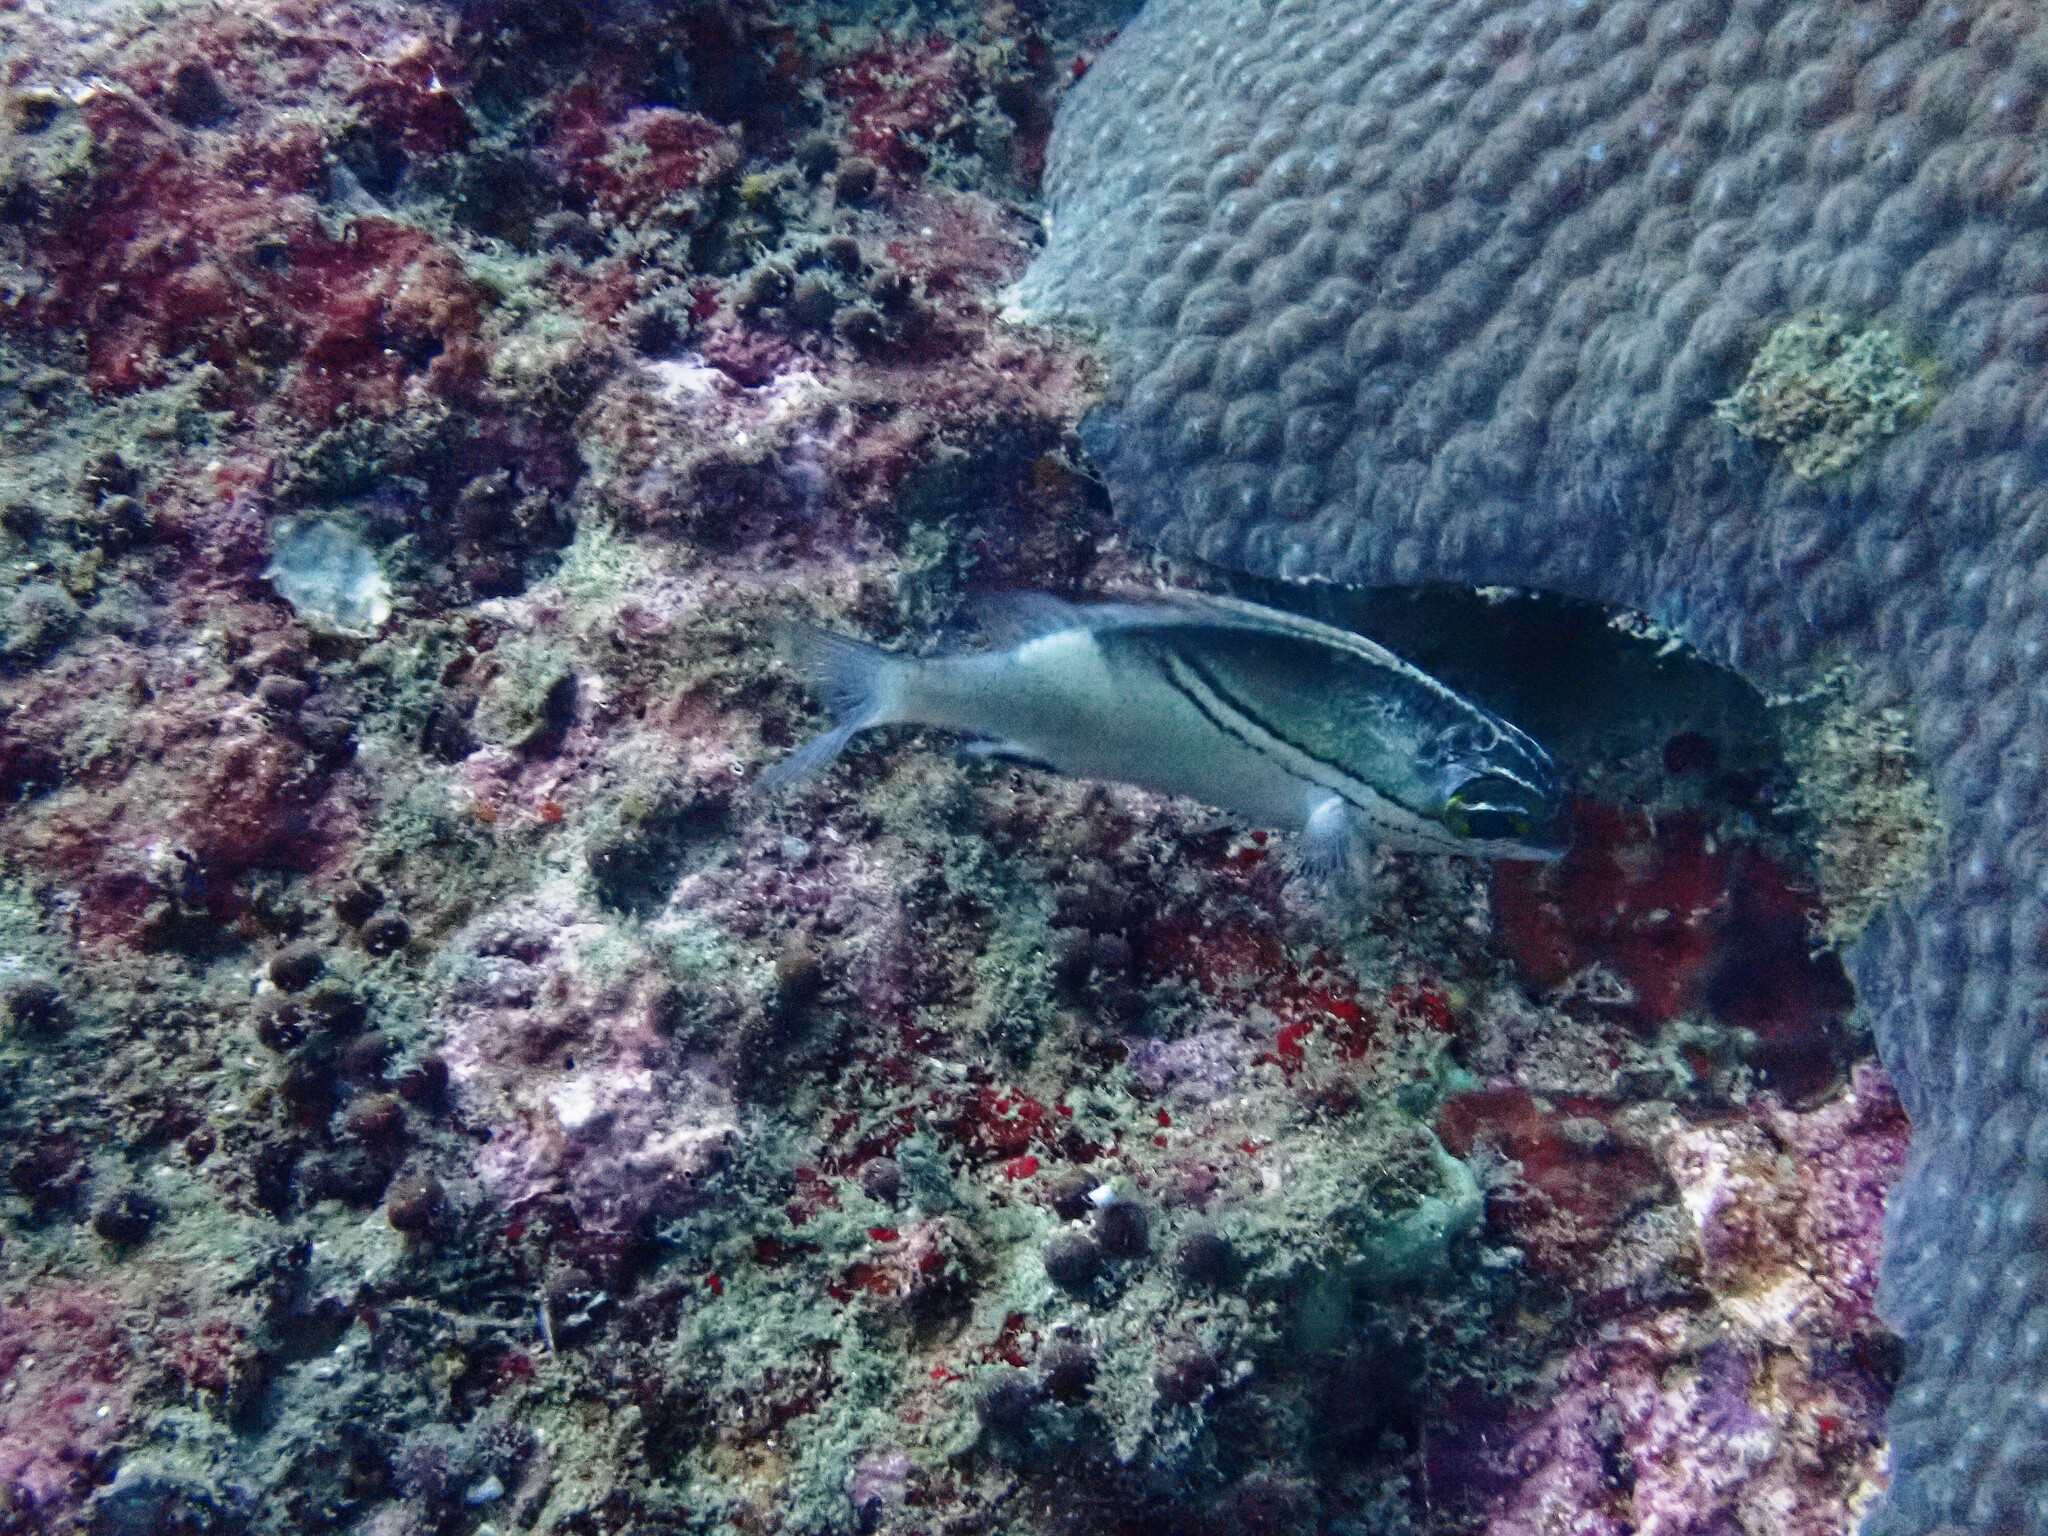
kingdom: Animalia
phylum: Chordata
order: Perciformes
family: Nemipteridae
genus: Scolopsis
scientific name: Scolopsis bilineata
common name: Two-lined monocle bream
